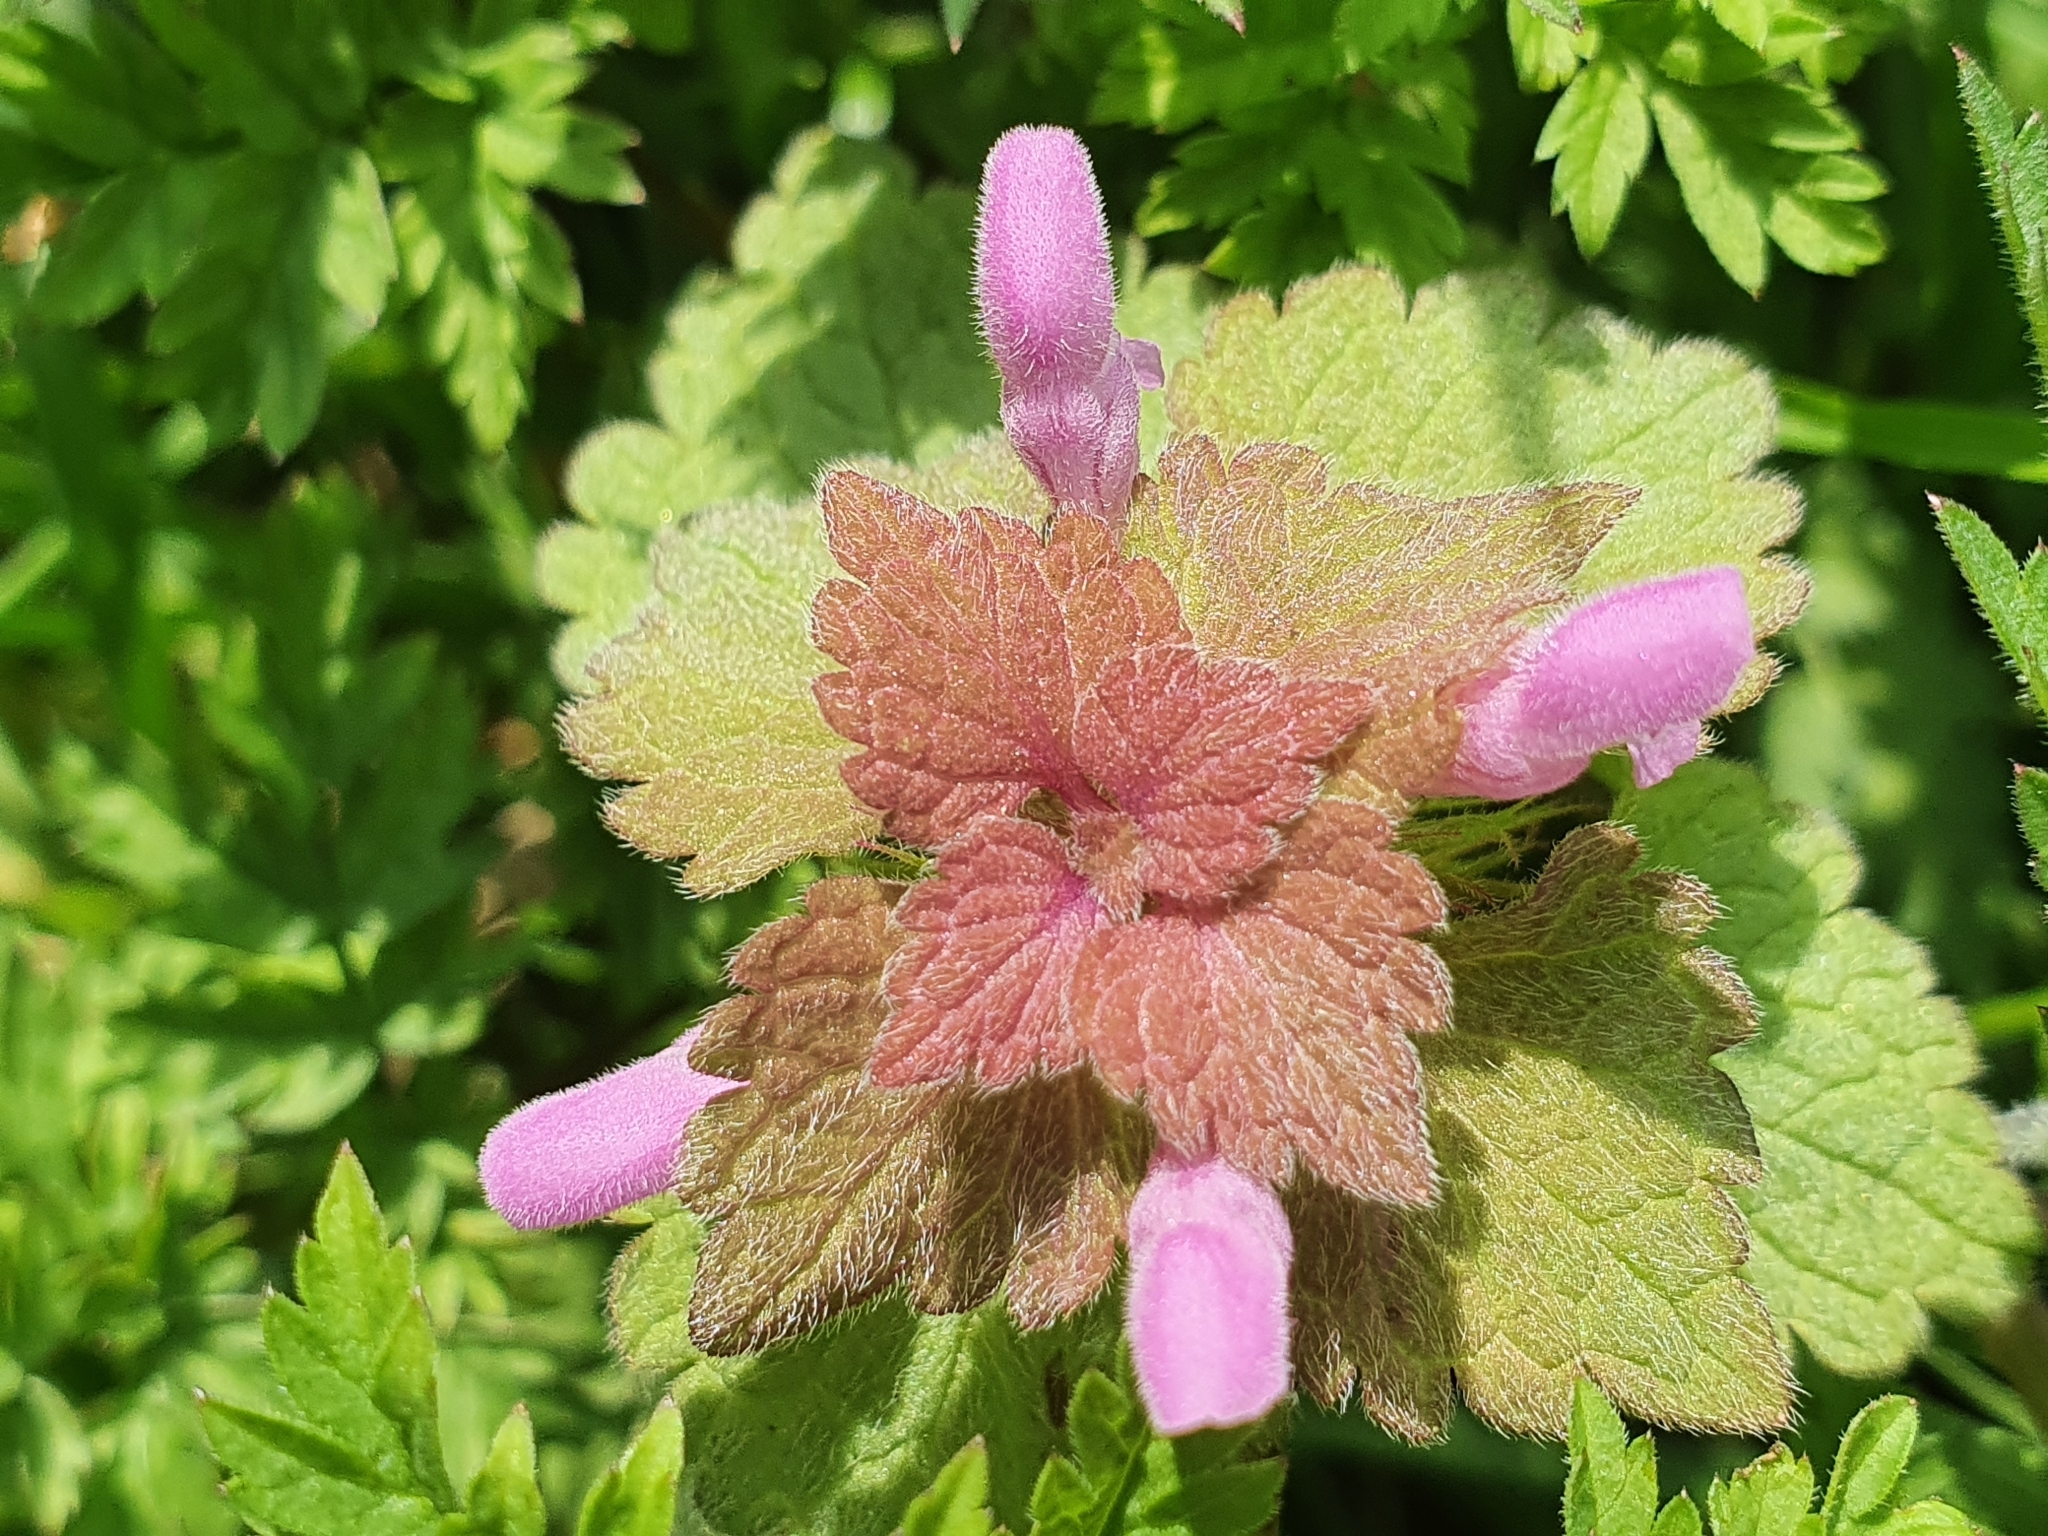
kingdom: Plantae
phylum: Tracheophyta
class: Magnoliopsida
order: Lamiales
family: Lamiaceae
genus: Lamium
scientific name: Lamium purpureum
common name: Red dead-nettle
